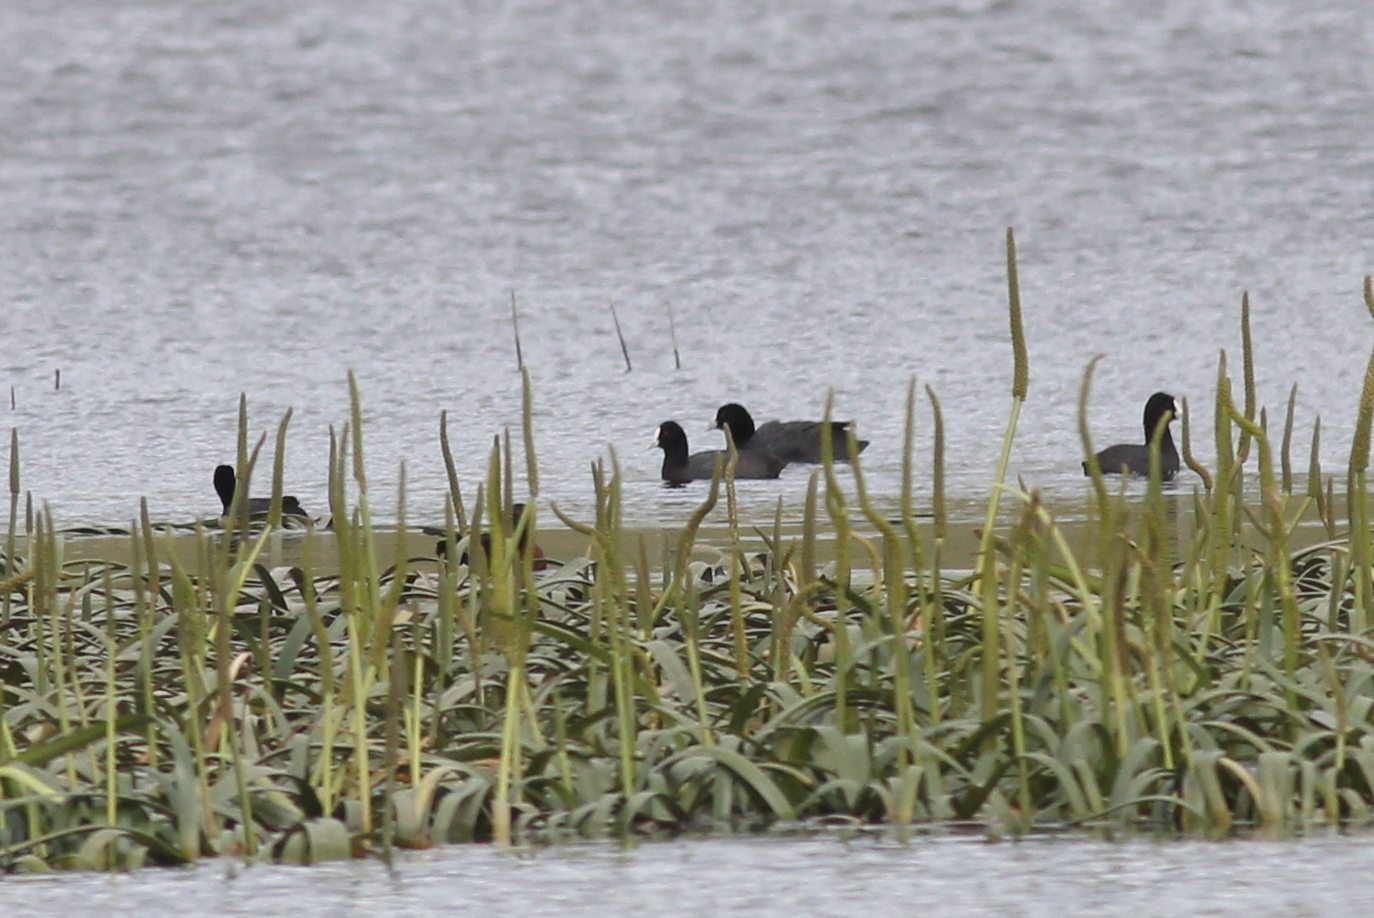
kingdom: Animalia
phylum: Chordata
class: Aves
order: Gruiformes
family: Rallidae
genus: Fulica
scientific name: Fulica atra
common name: Eurasian coot
